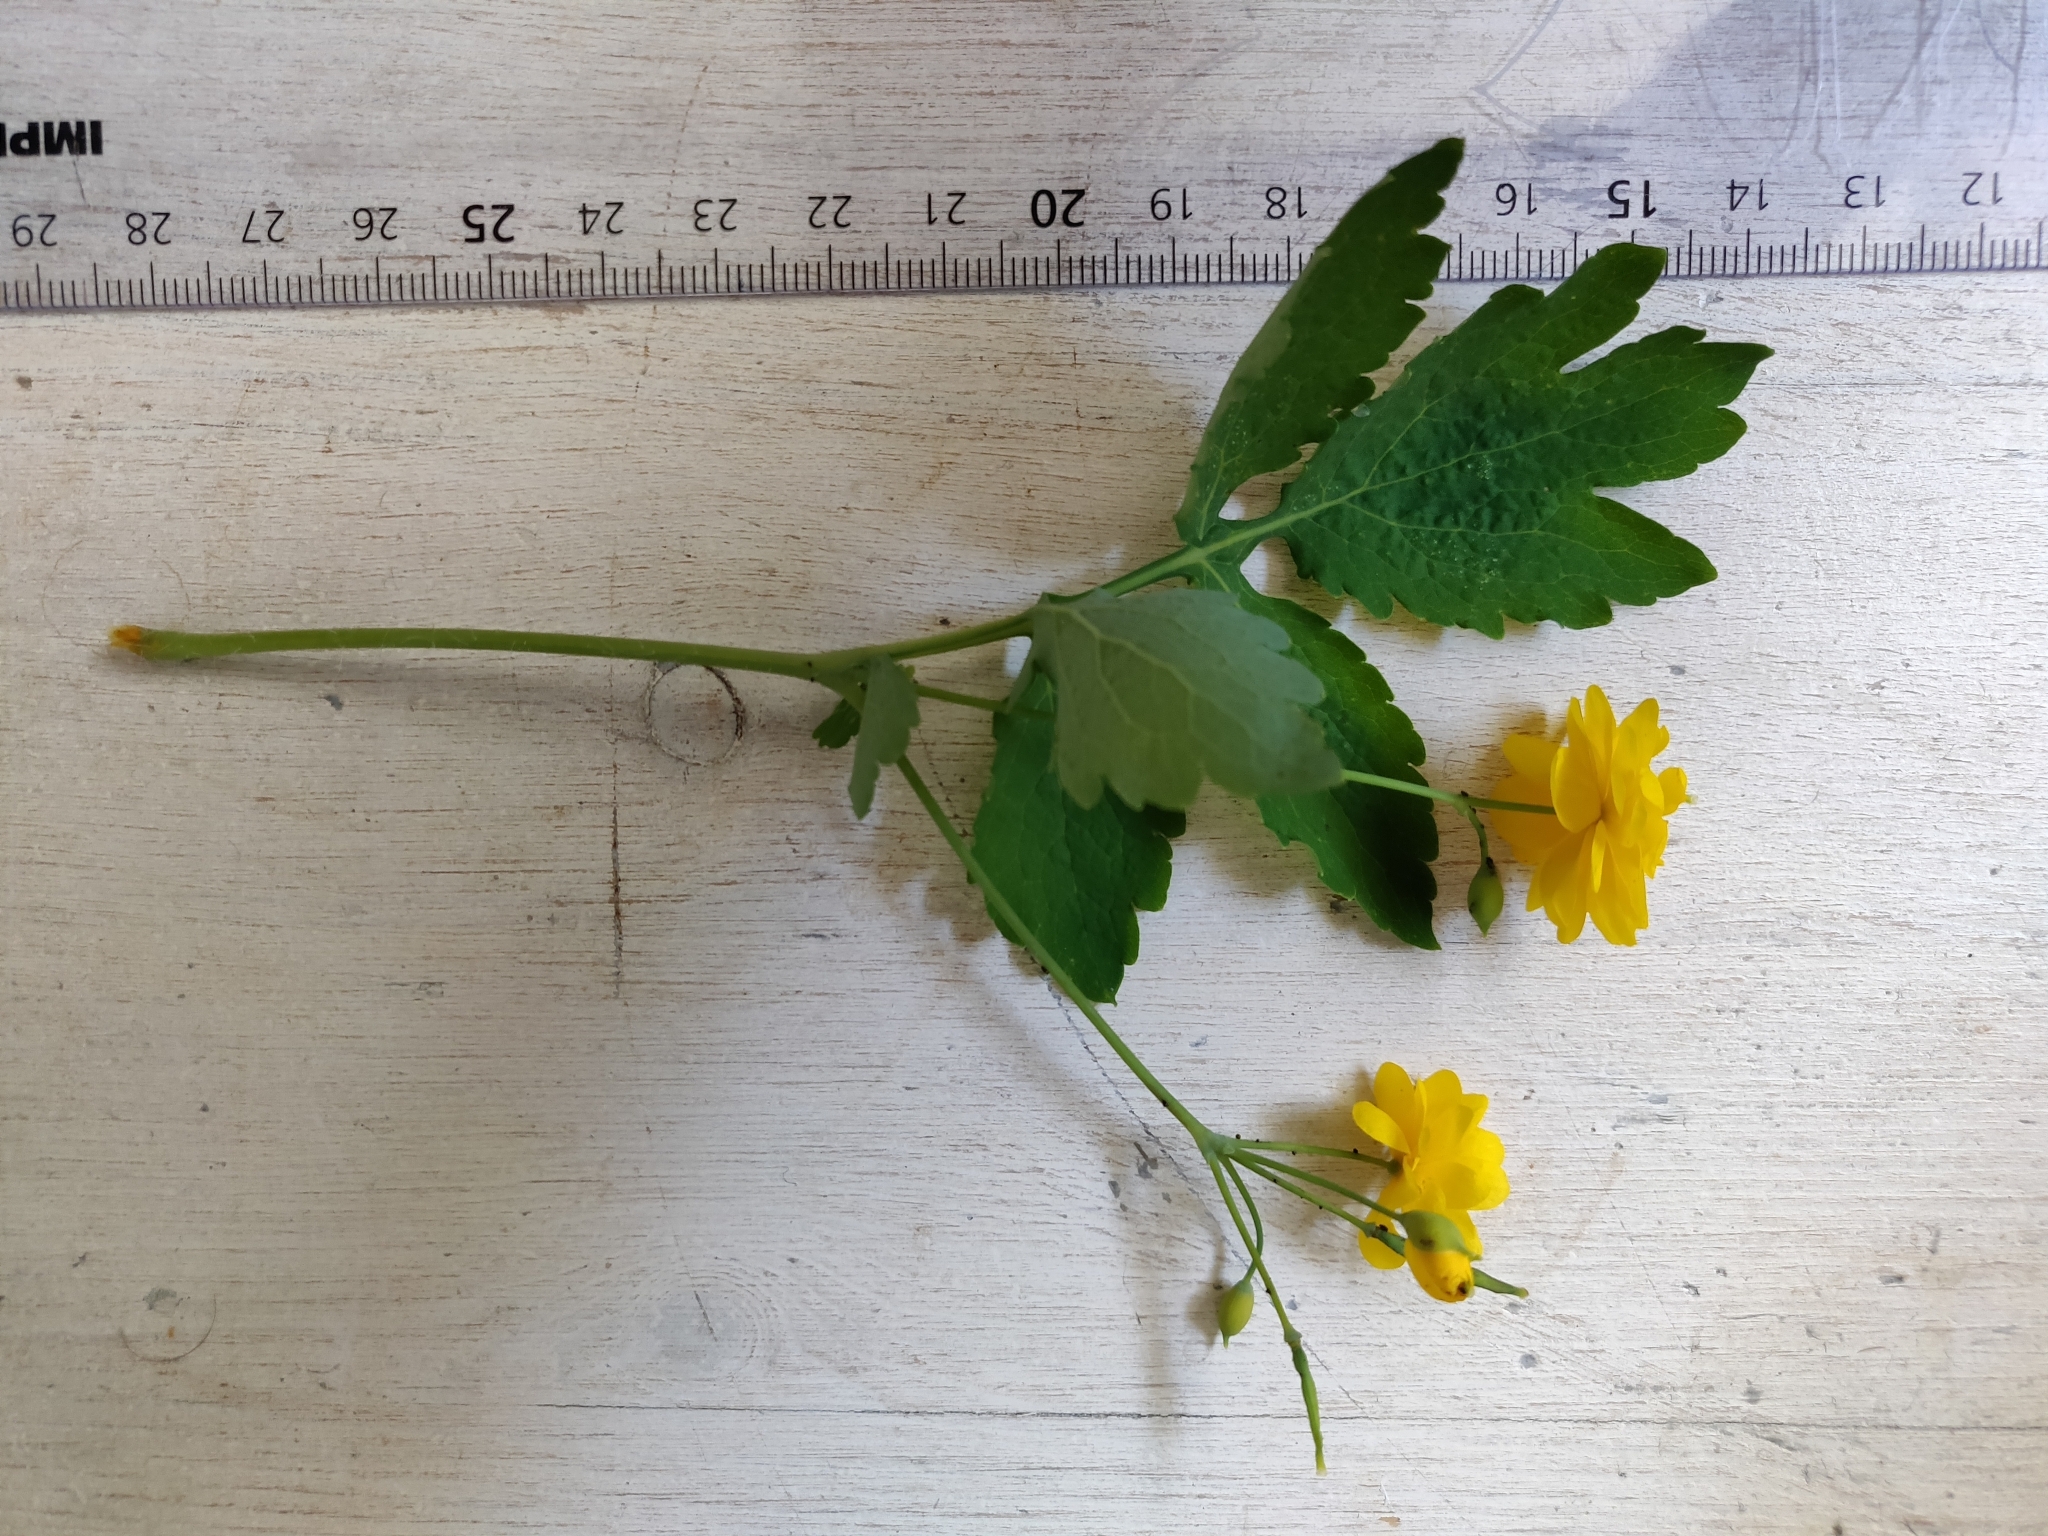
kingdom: Plantae
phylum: Tracheophyta
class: Magnoliopsida
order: Ranunculales
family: Papaveraceae
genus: Chelidonium
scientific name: Chelidonium majus
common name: Greater celandine
